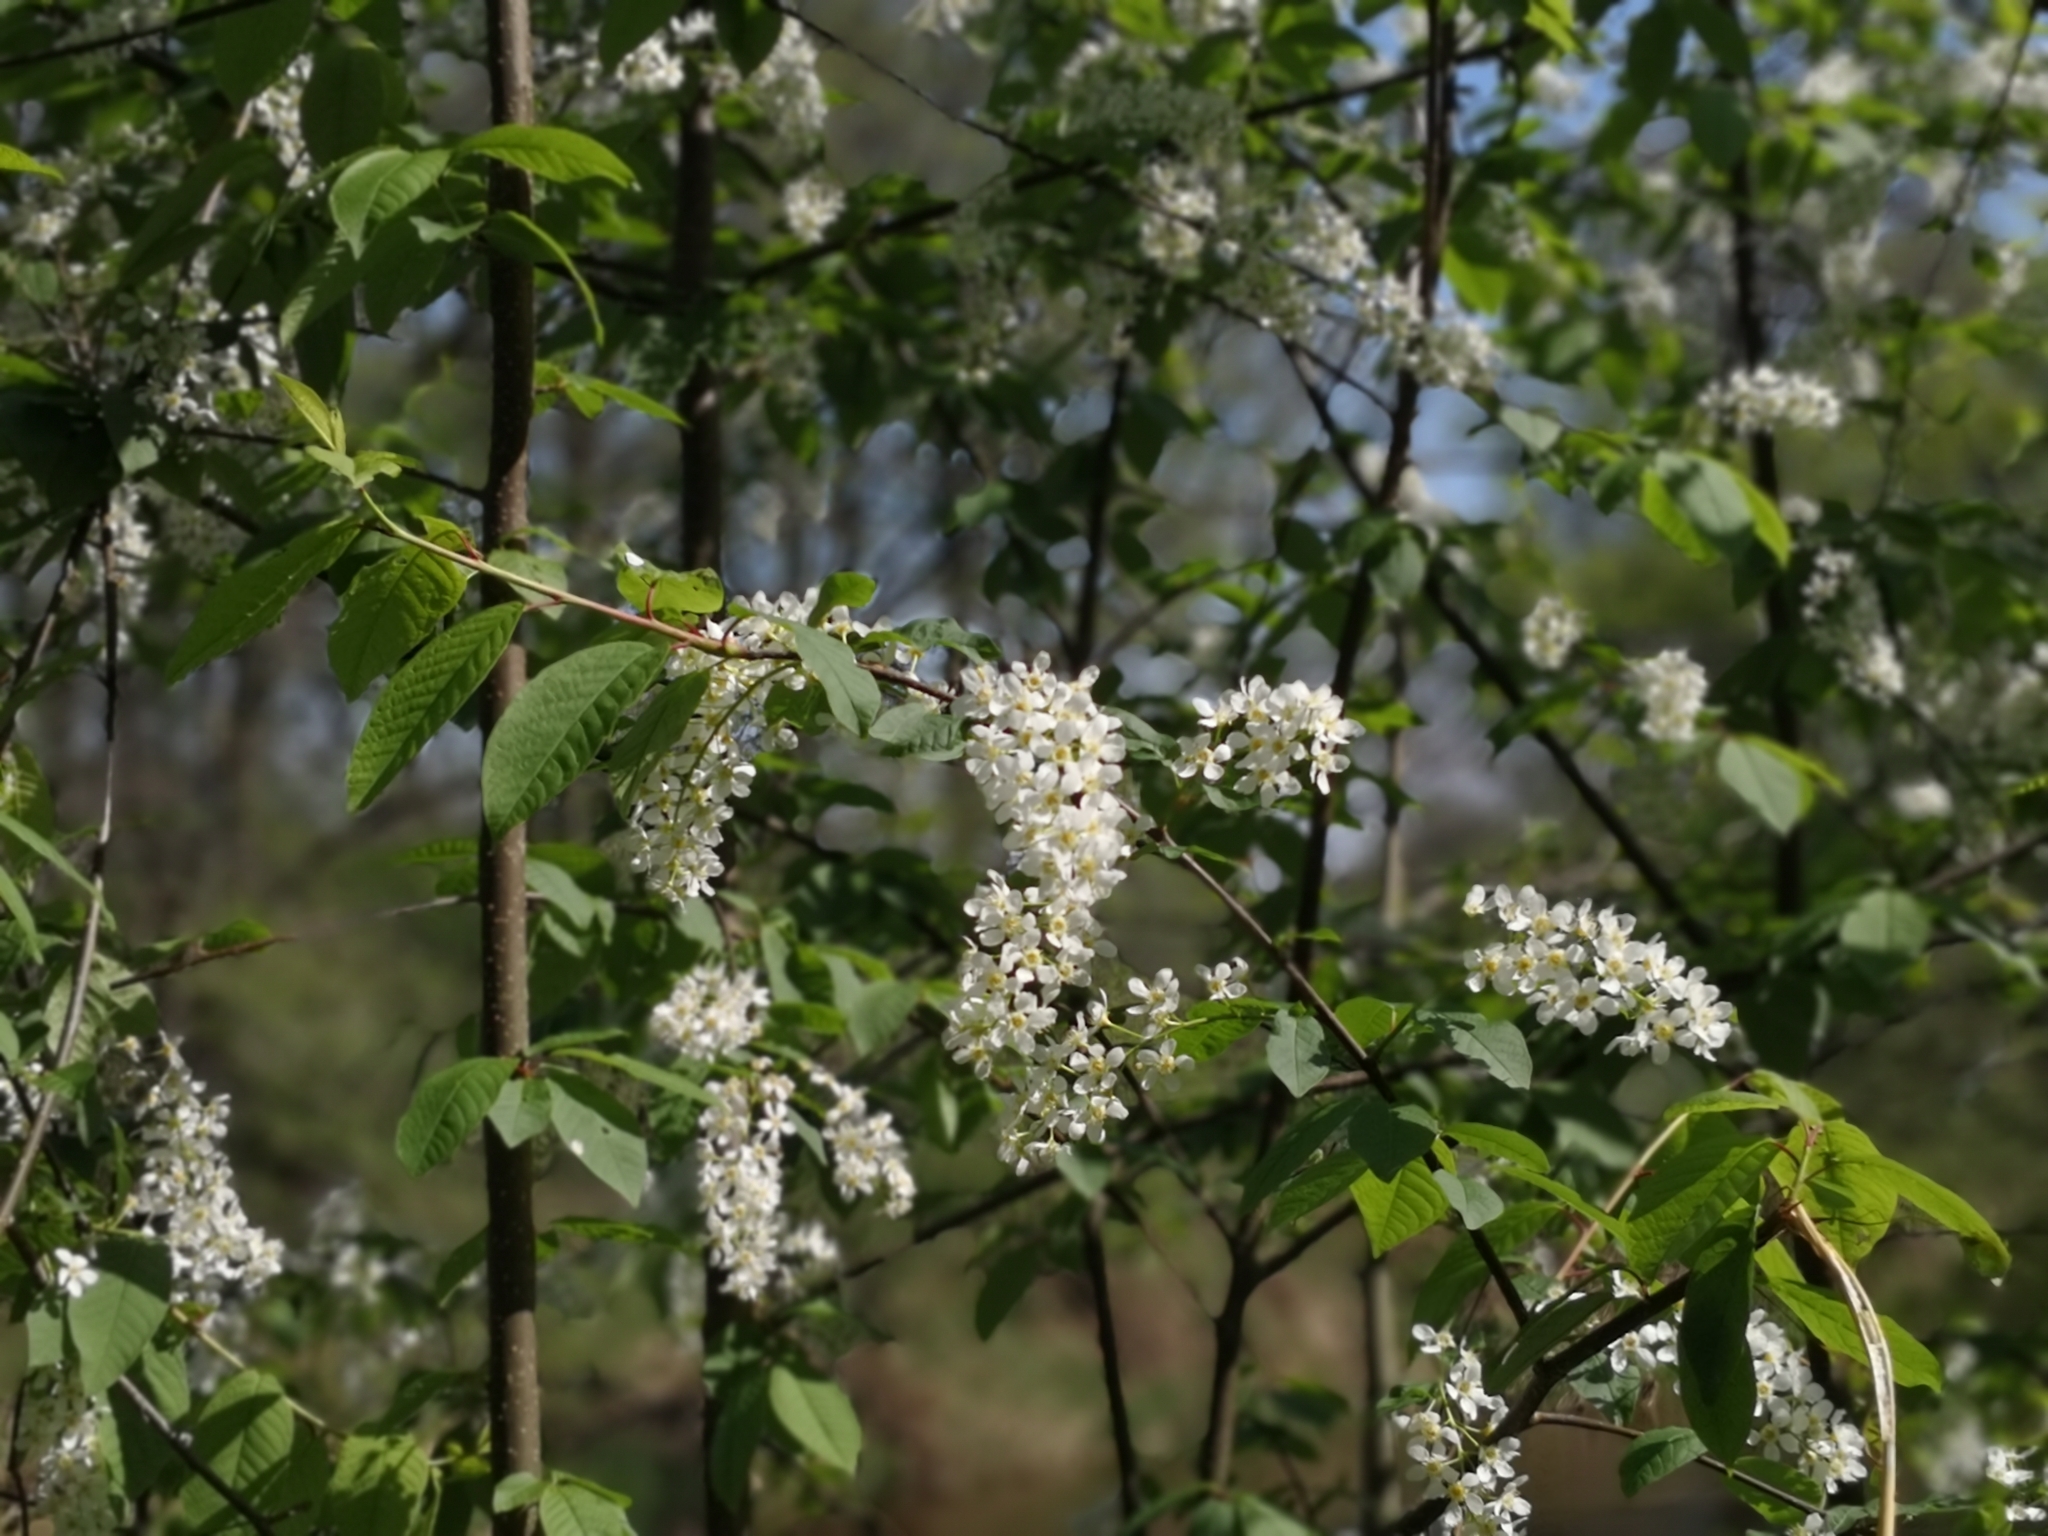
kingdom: Plantae
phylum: Tracheophyta
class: Magnoliopsida
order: Rosales
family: Rosaceae
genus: Prunus
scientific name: Prunus padus
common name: Bird cherry
